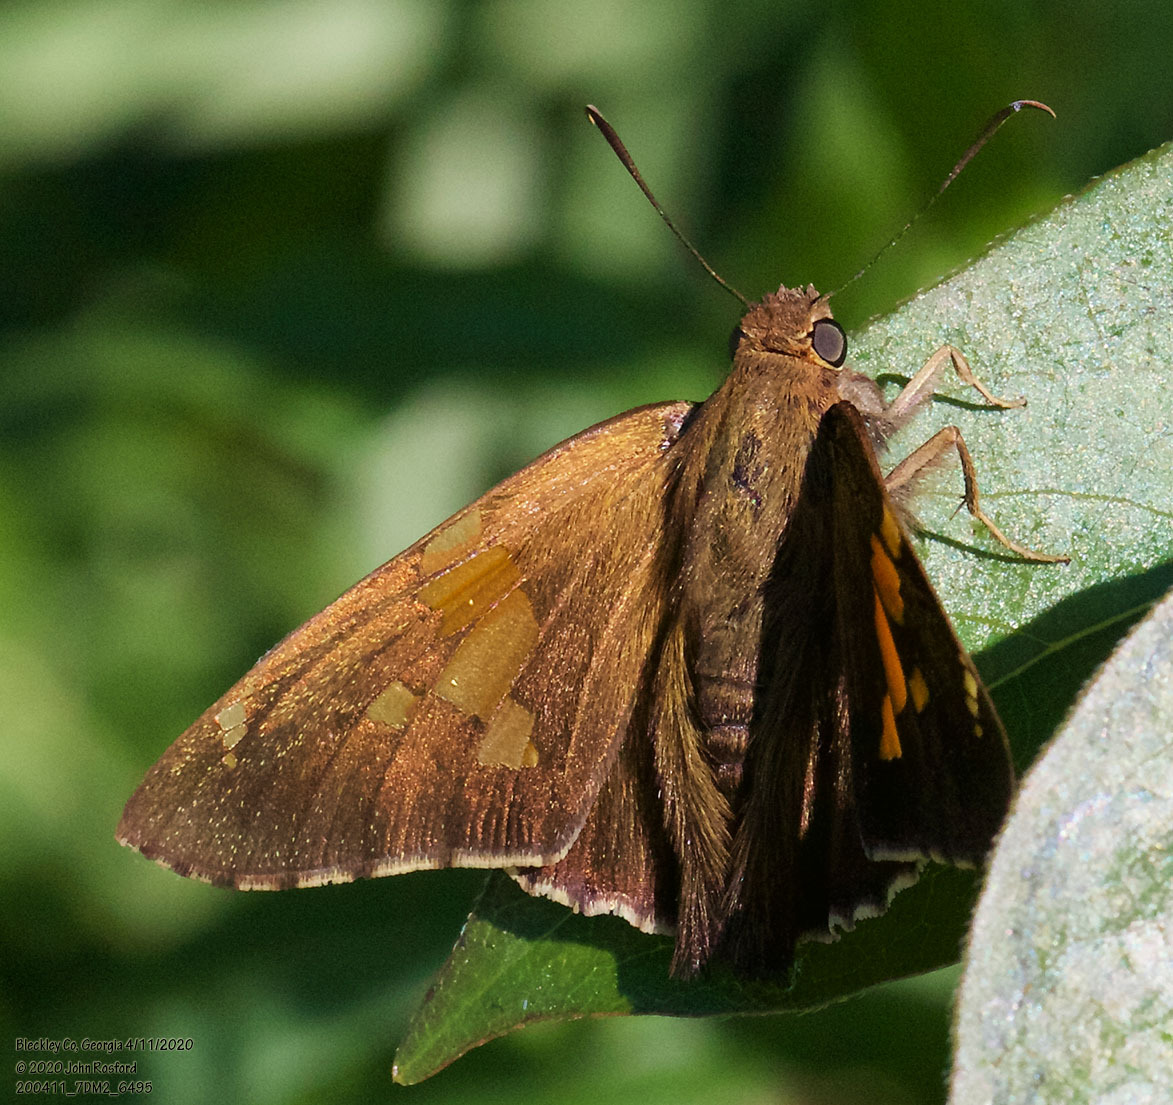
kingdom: Animalia
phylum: Arthropoda
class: Insecta
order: Lepidoptera
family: Hesperiidae
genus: Epargyreus
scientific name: Epargyreus clarus
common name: Silver-spotted skipper
